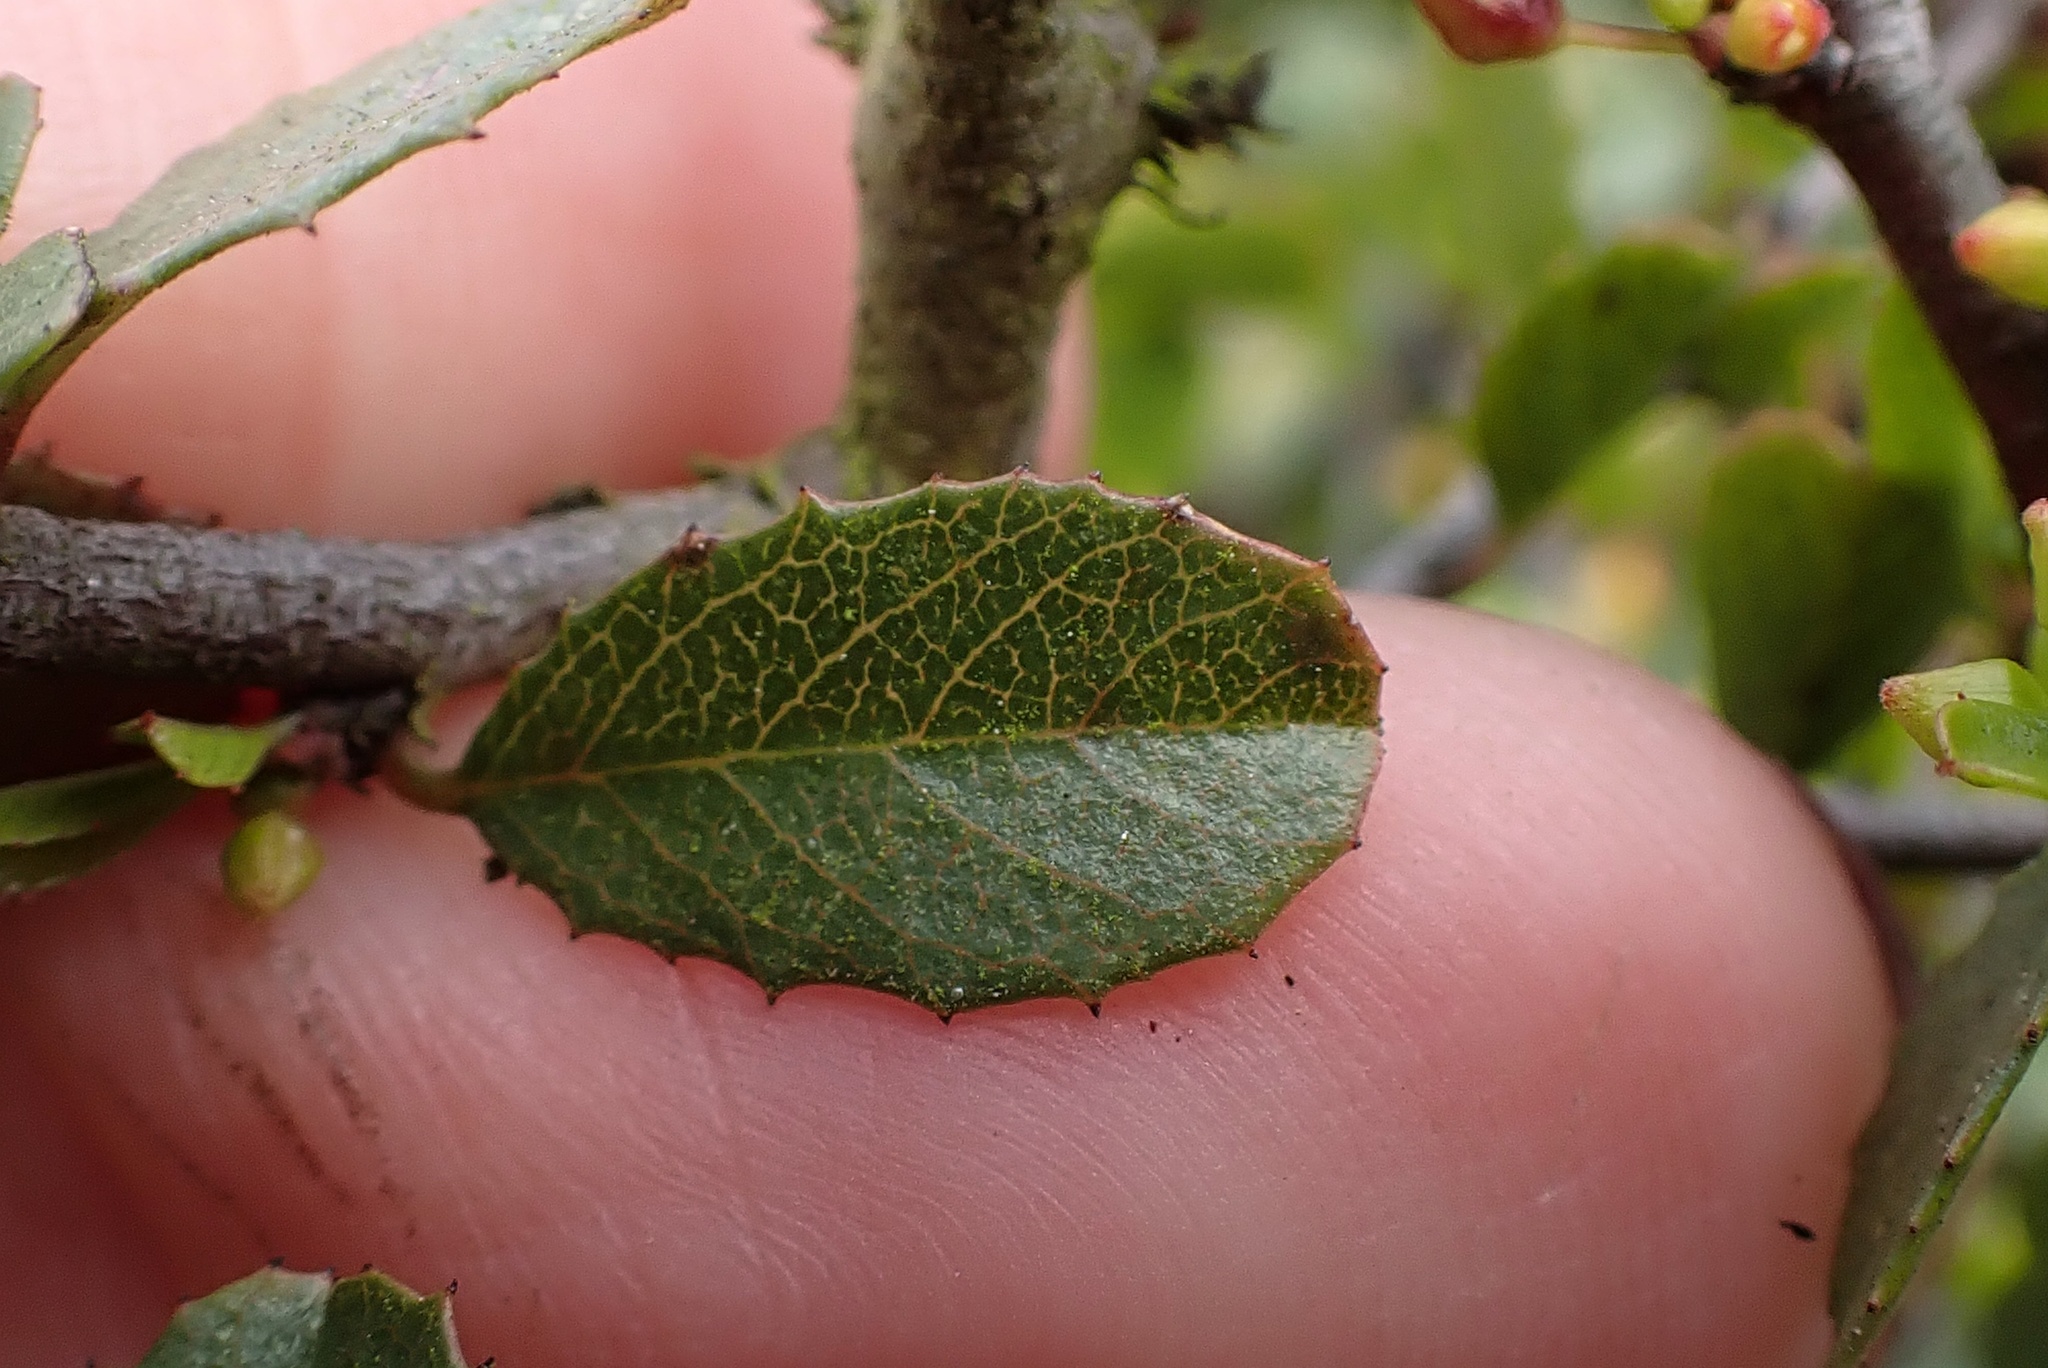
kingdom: Plantae
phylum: Tracheophyta
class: Magnoliopsida
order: Rosales
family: Rhamnaceae
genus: Endotropis
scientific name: Endotropis crocea
